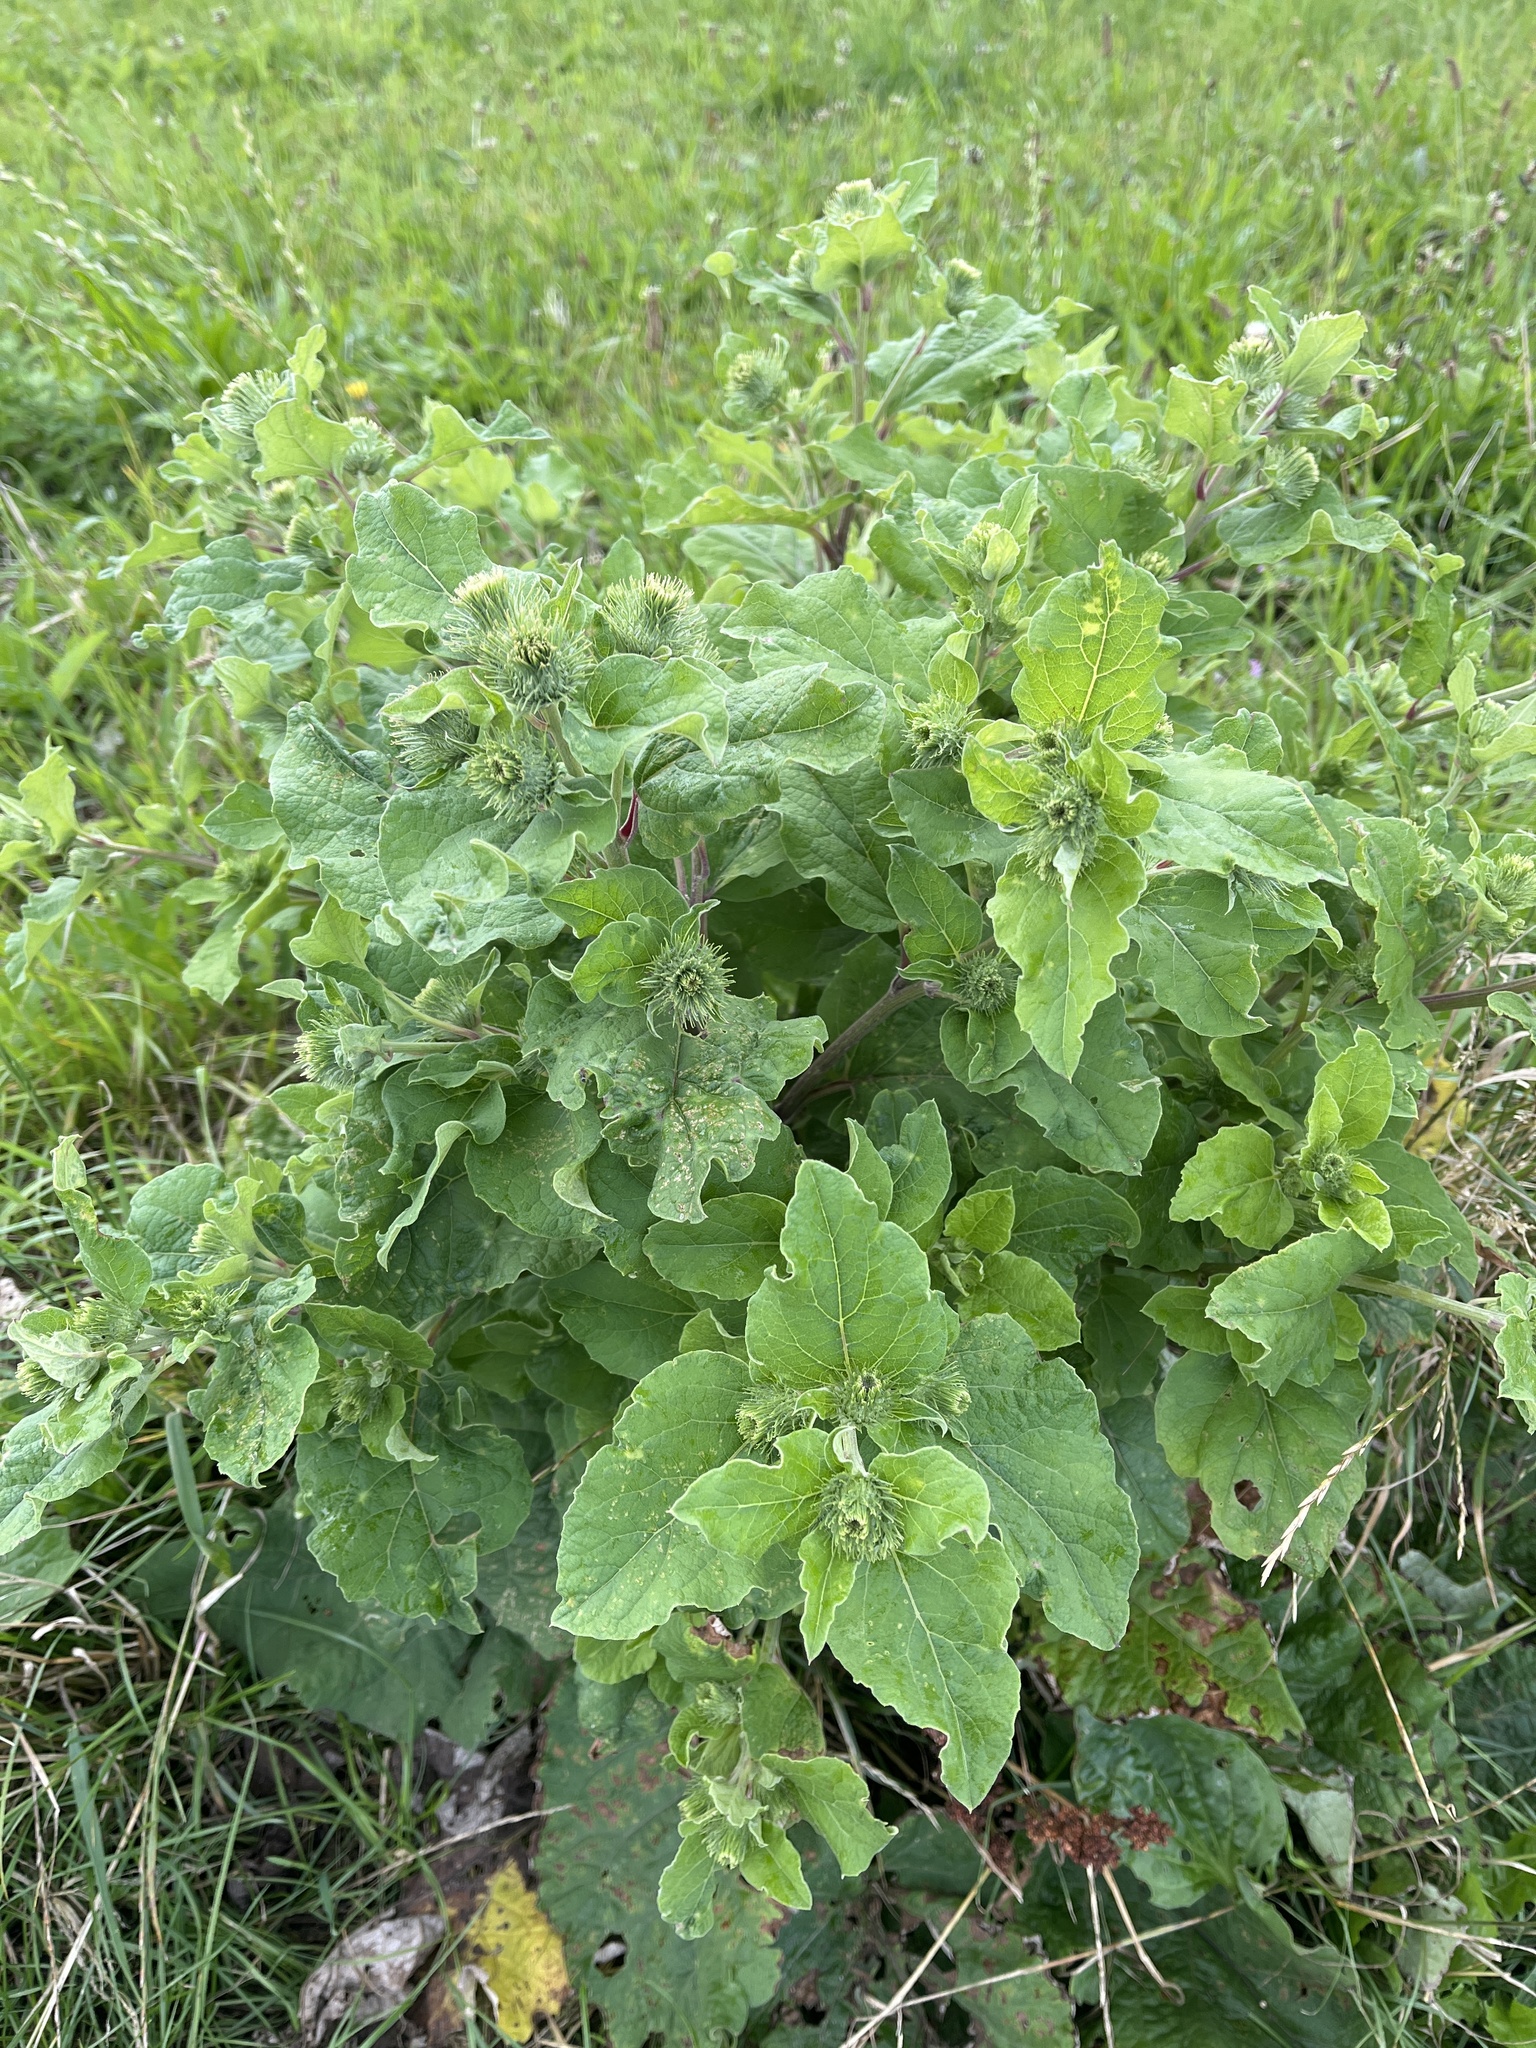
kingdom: Plantae
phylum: Tracheophyta
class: Magnoliopsida
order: Asterales
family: Asteraceae
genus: Arctium
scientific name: Arctium minus
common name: Lesser burdock
